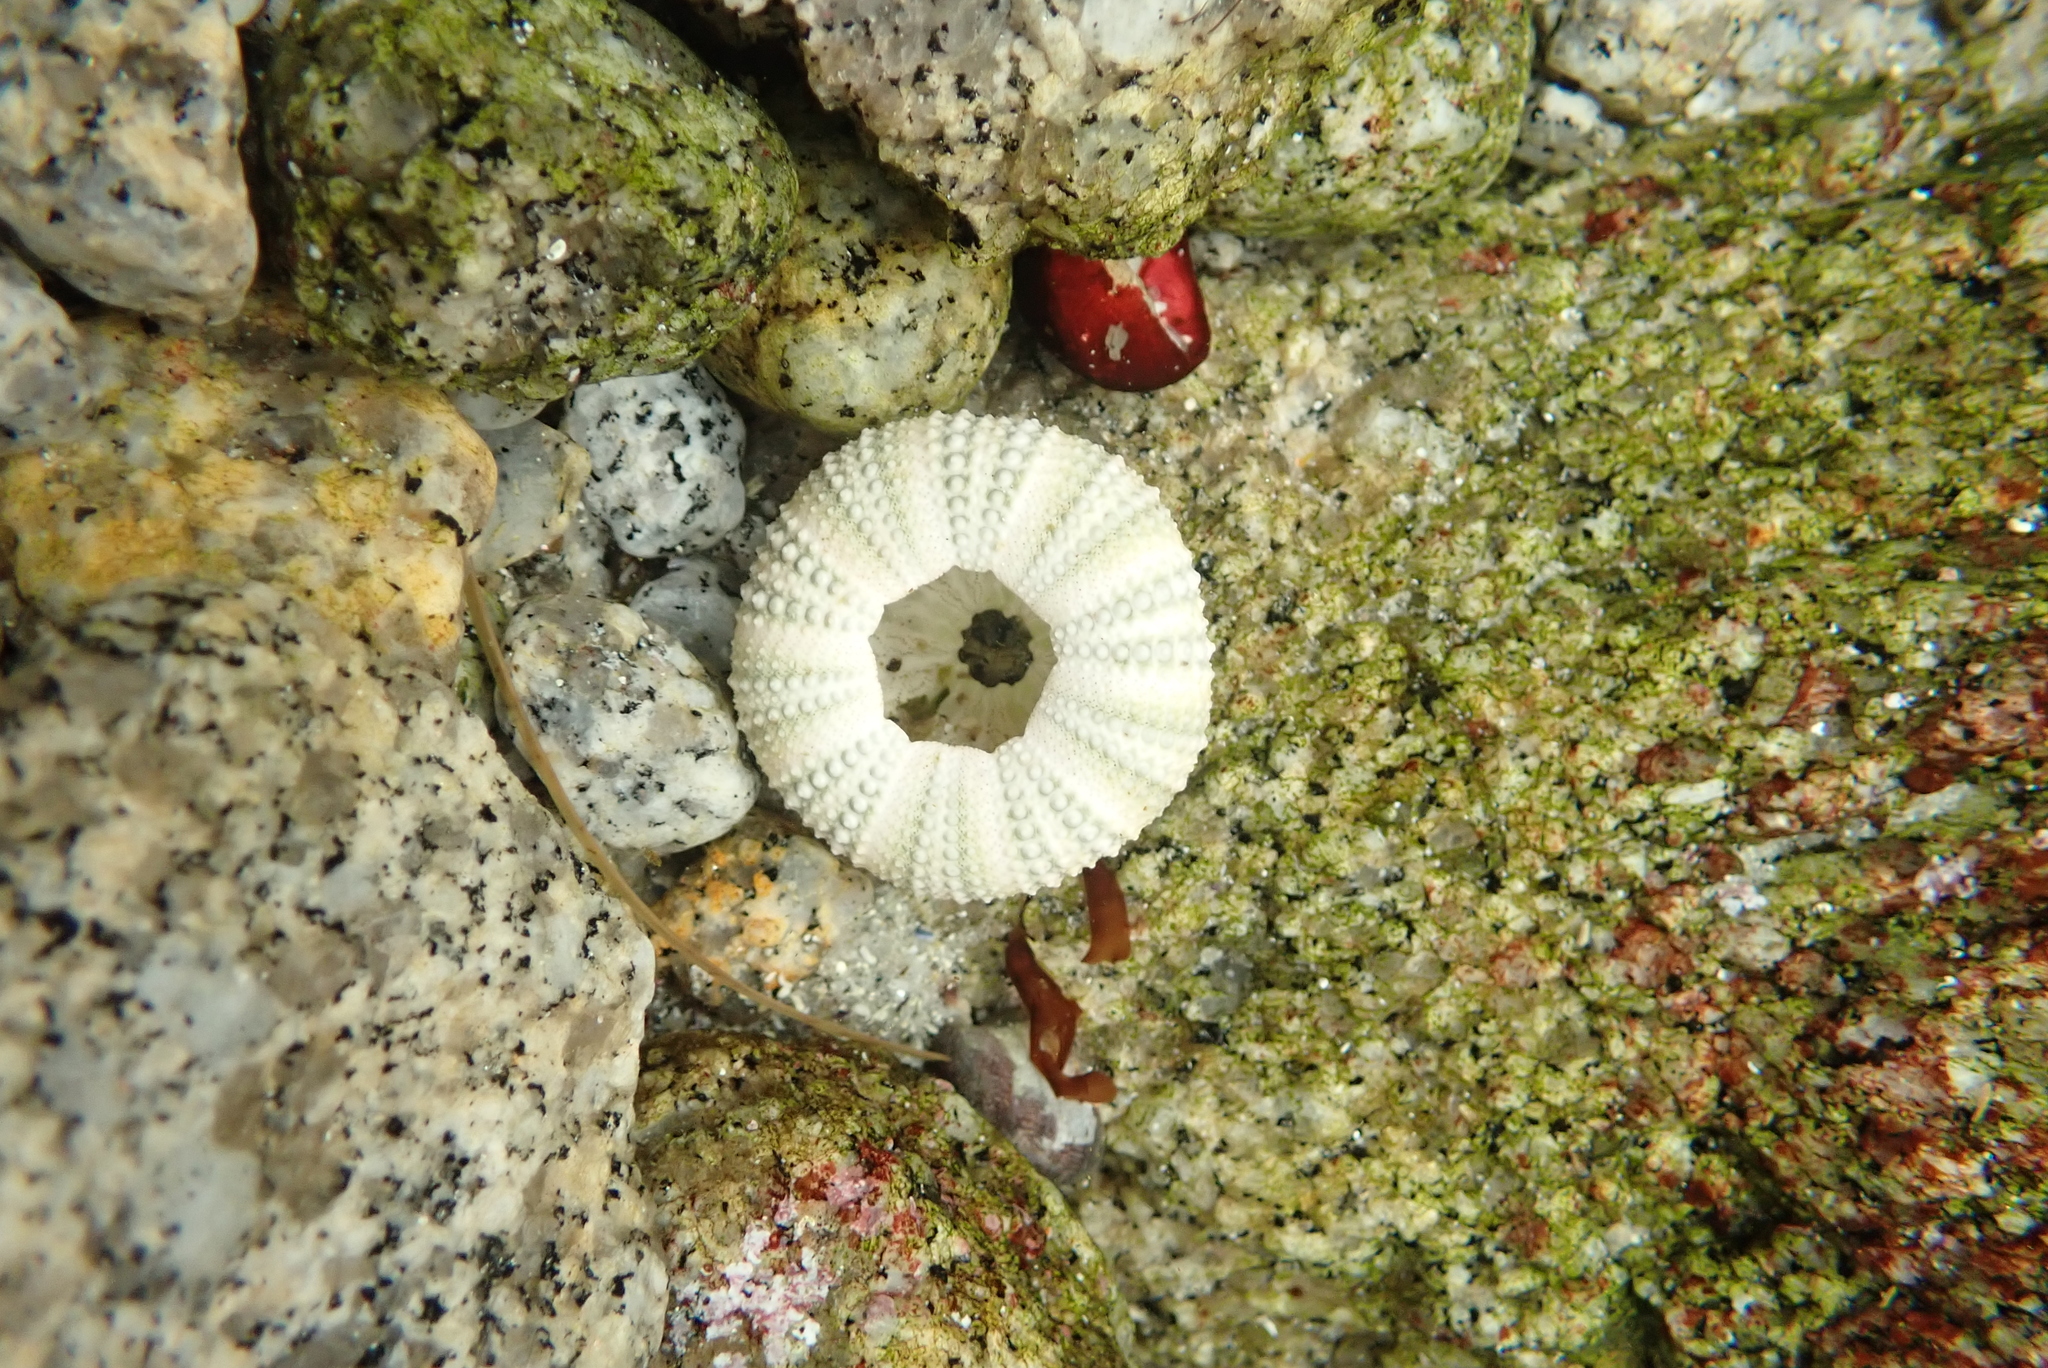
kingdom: Animalia
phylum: Echinodermata
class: Echinoidea
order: Camarodonta
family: Strongylocentrotidae
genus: Strongylocentrotus
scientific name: Strongylocentrotus purpuratus
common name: Purple sea urchin
